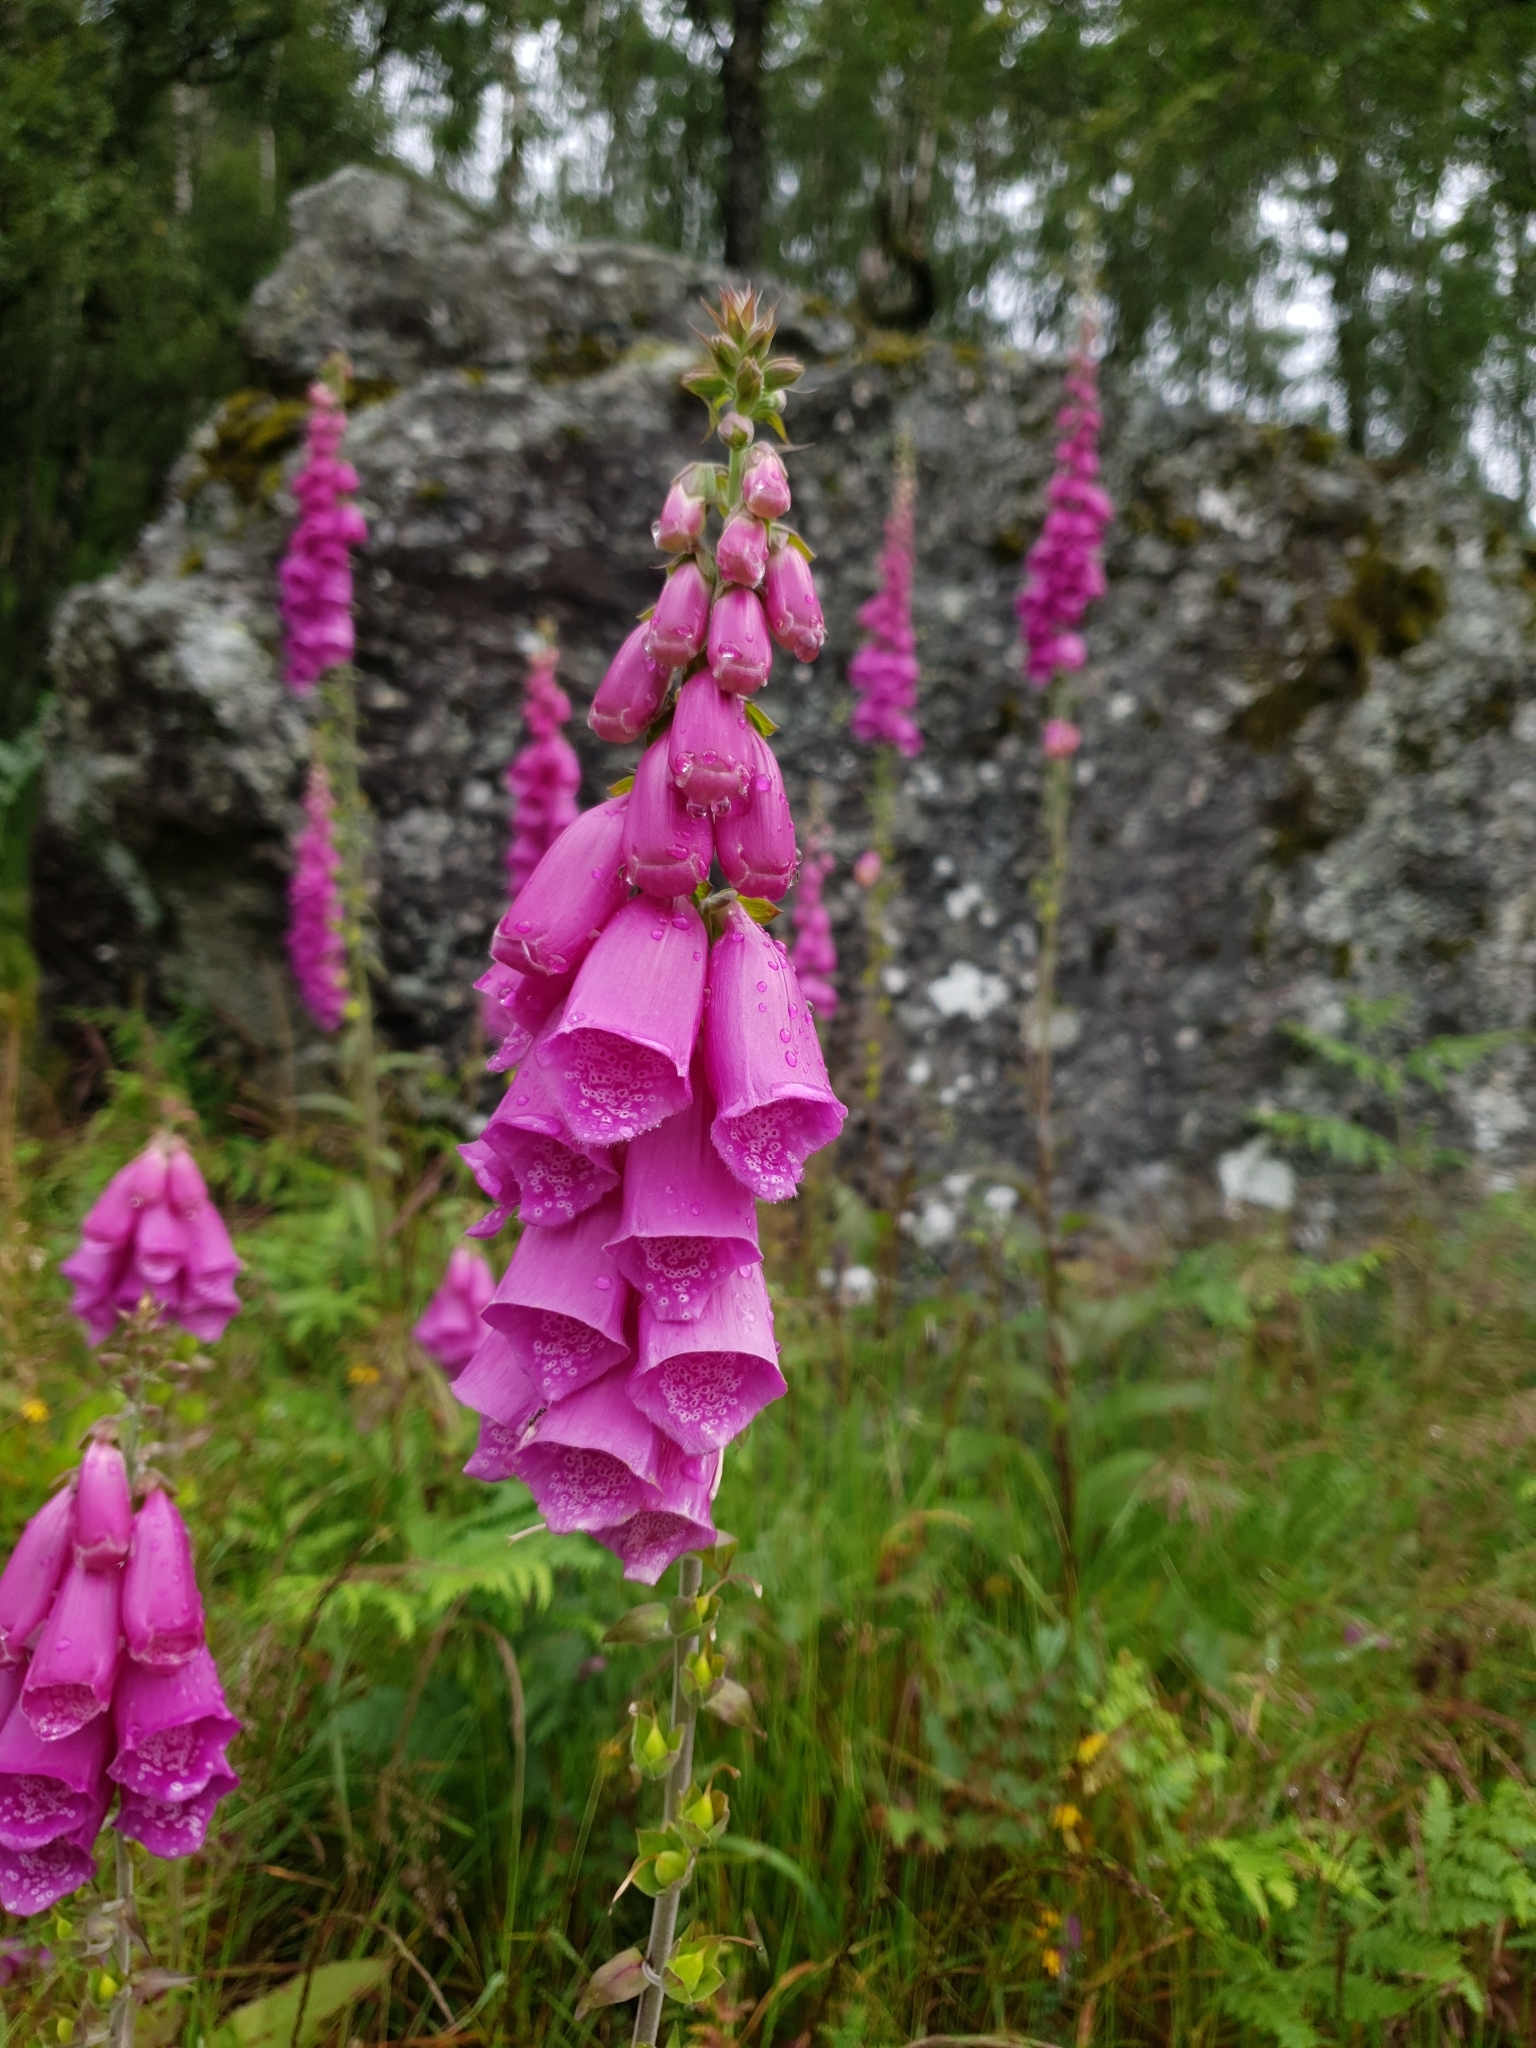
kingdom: Plantae
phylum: Tracheophyta
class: Magnoliopsida
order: Lamiales
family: Plantaginaceae
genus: Digitalis
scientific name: Digitalis purpurea
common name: Foxglove
